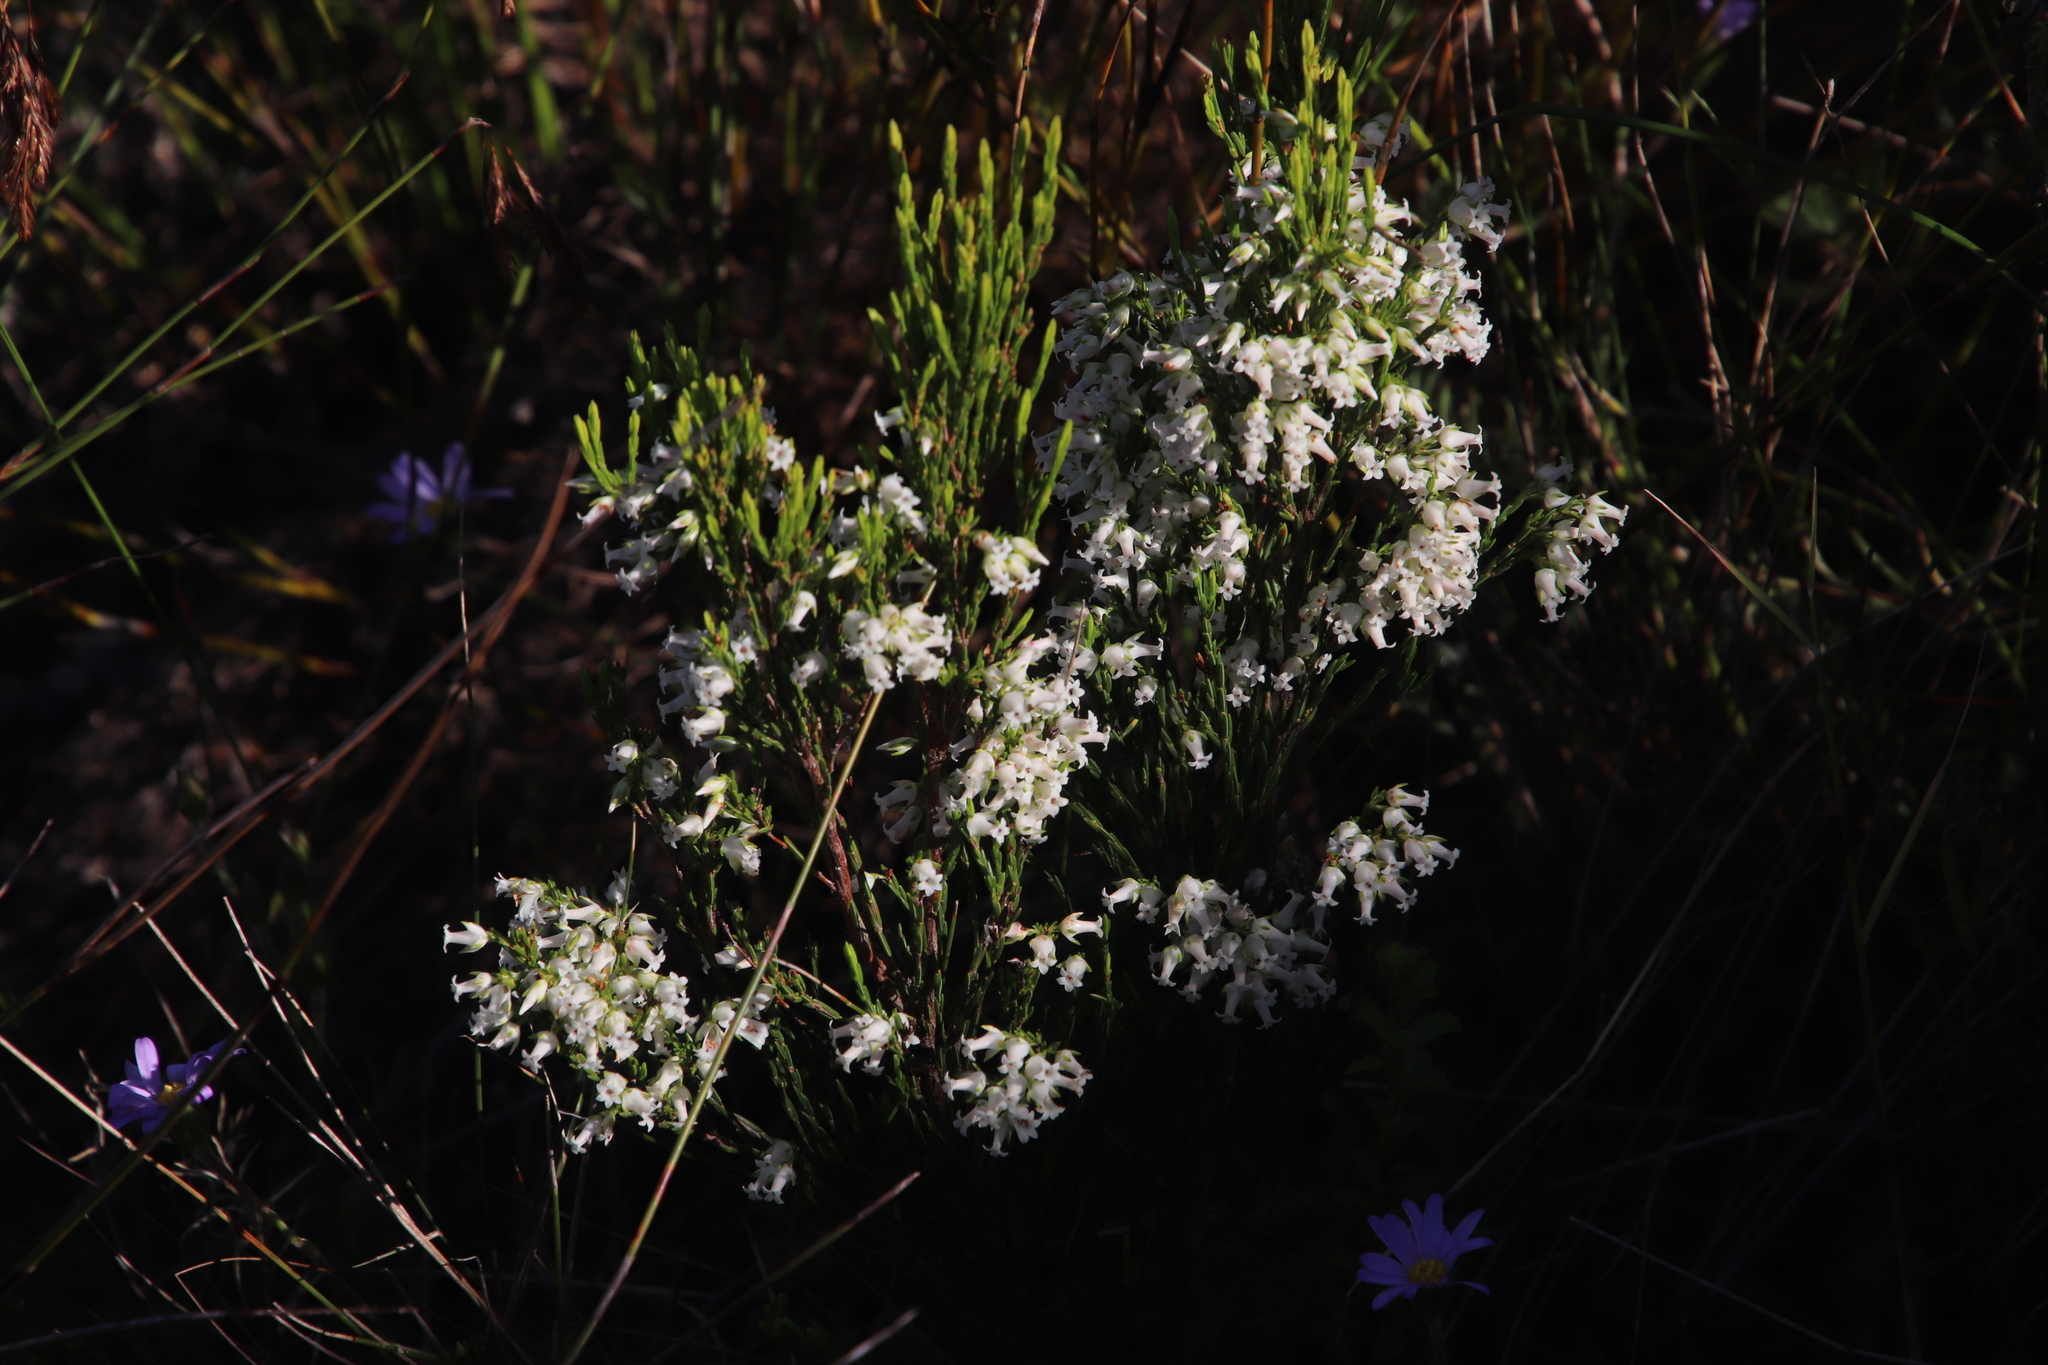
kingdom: Plantae
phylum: Tracheophyta
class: Magnoliopsida
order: Ericales
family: Ericaceae
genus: Erica
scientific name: Erica lutea
